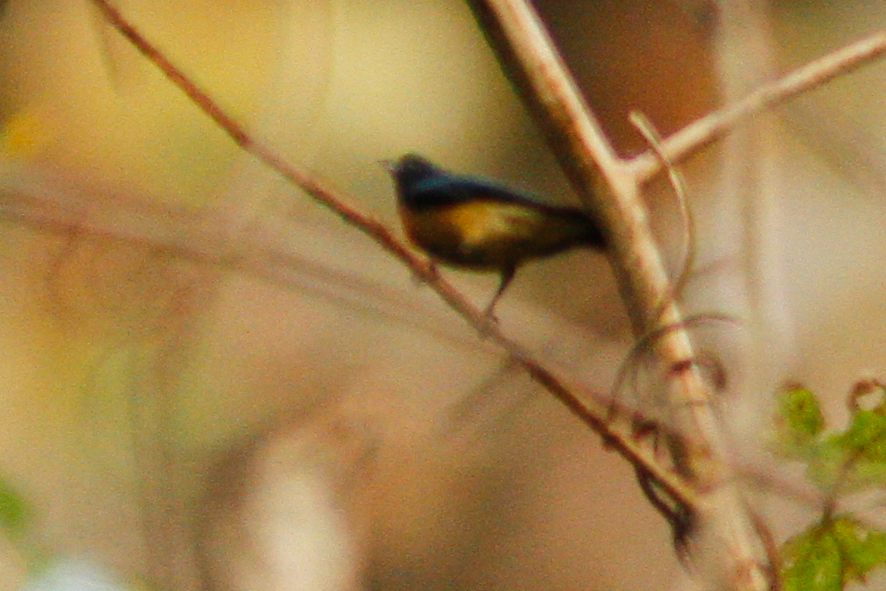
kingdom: Animalia
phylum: Chordata
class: Aves
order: Passeriformes
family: Dicaeidae
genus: Dicaeum
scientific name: Dicaeum ignipectus
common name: Fire-breasted flowerpecker
